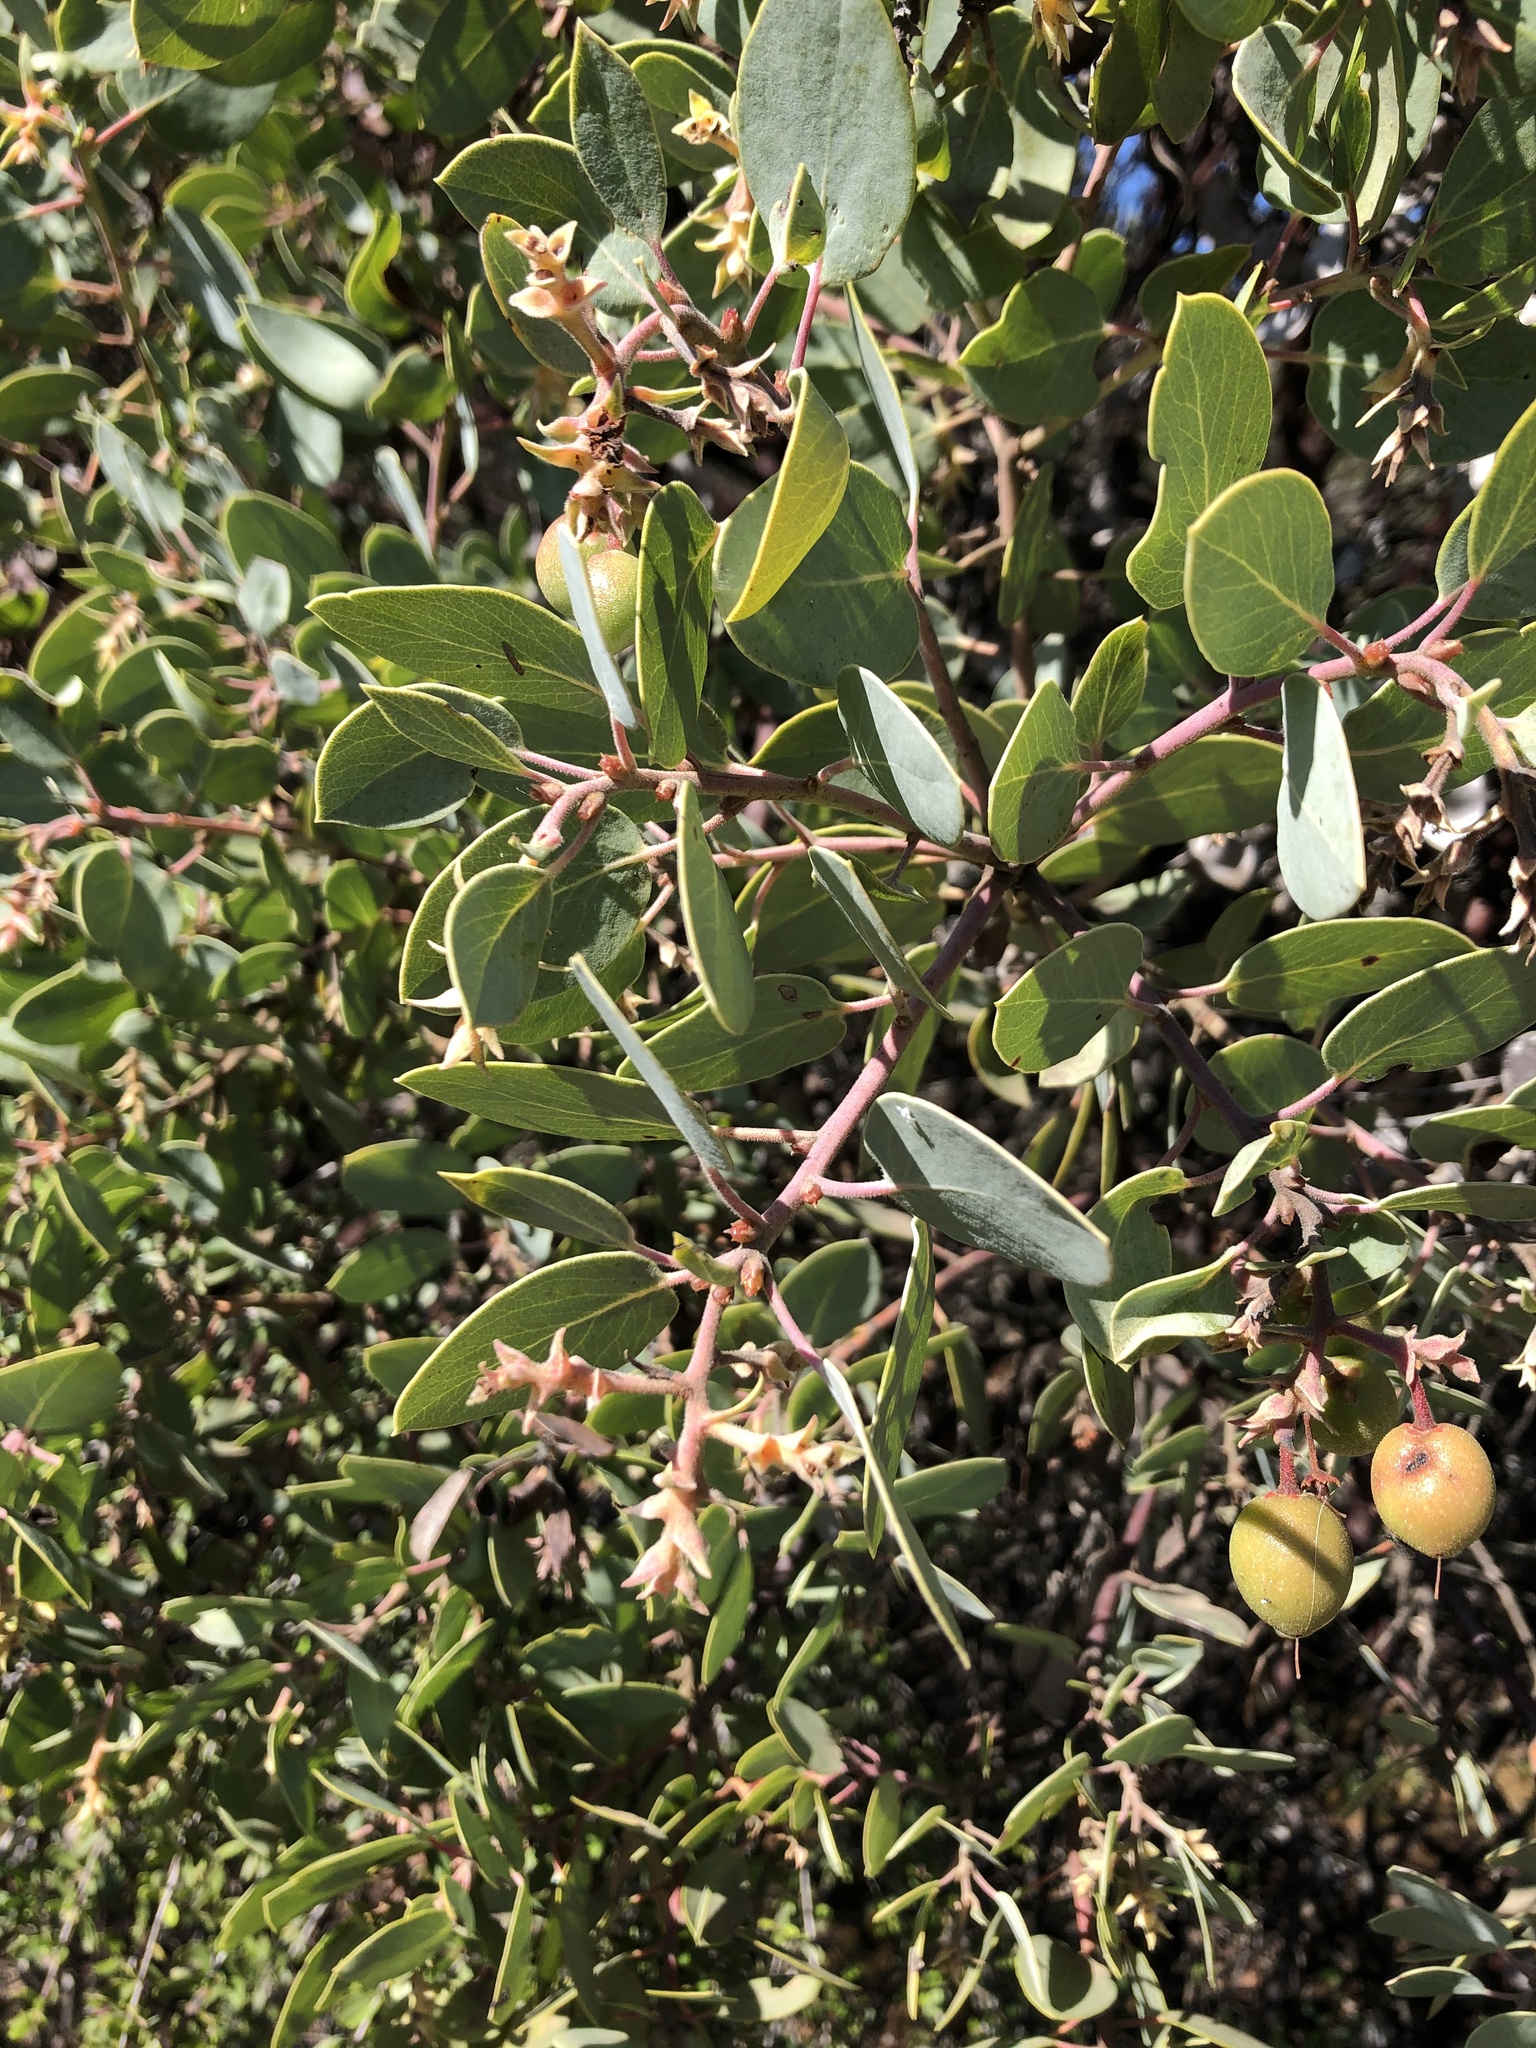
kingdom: Plantae
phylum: Tracheophyta
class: Magnoliopsida
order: Ericales
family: Ericaceae
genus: Arctostaphylos
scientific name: Arctostaphylos glauca
